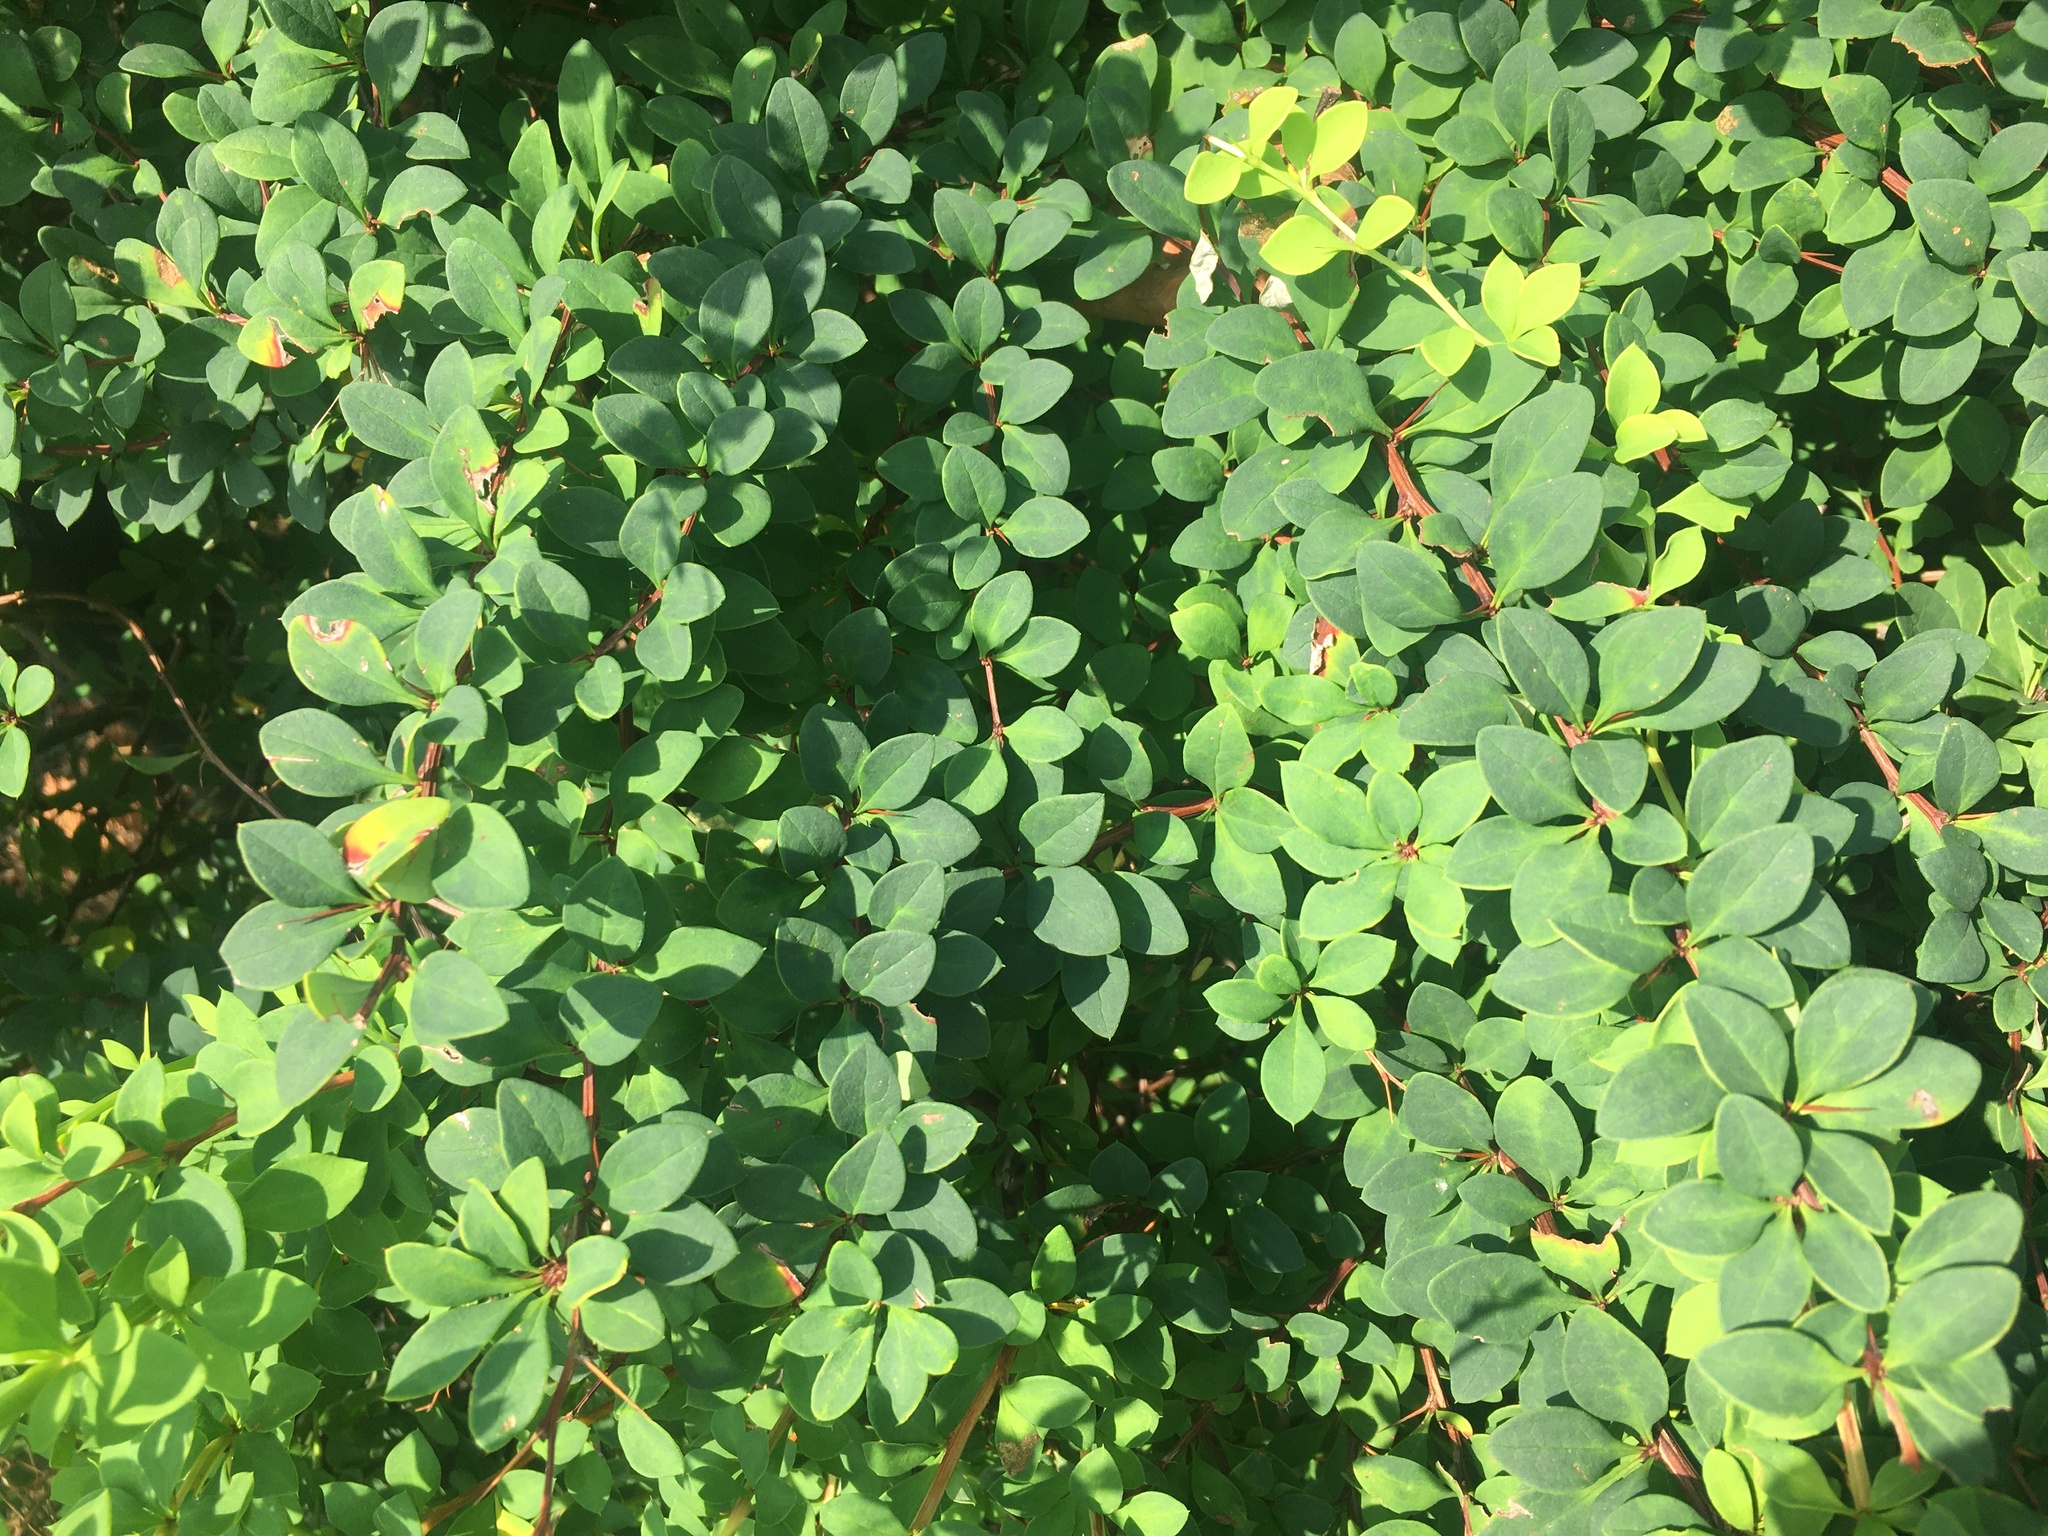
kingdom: Plantae
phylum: Tracheophyta
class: Magnoliopsida
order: Ranunculales
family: Berberidaceae
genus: Berberis
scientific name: Berberis thunbergii
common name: Japanese barberry
